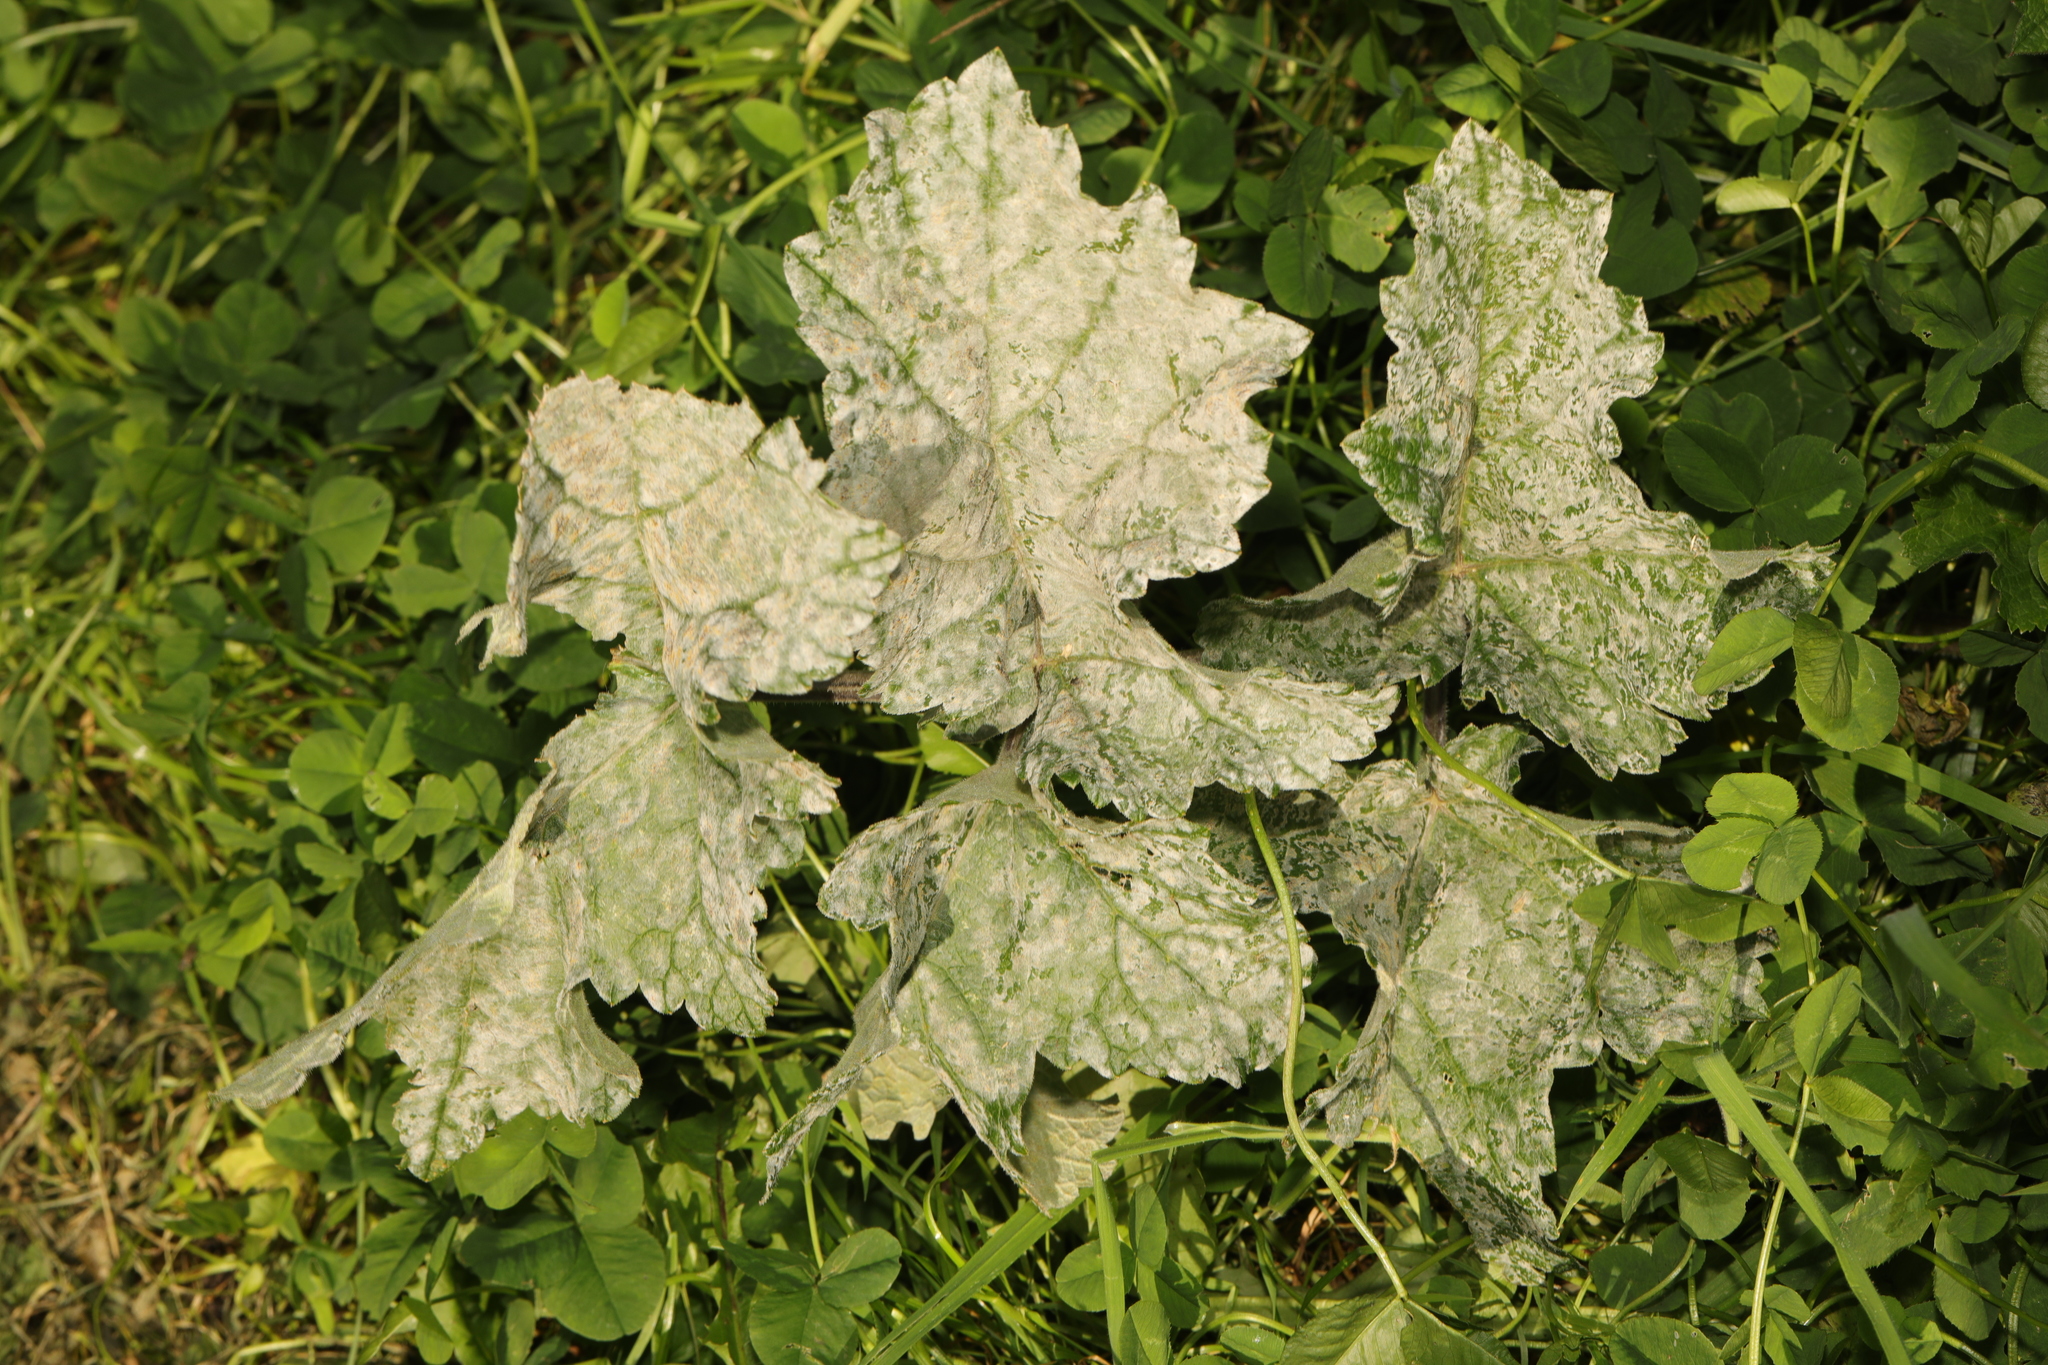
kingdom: Fungi
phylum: Ascomycota
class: Leotiomycetes
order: Helotiales
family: Erysiphaceae
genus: Erysiphe
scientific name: Erysiphe heraclei
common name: Umbellifer mildew
